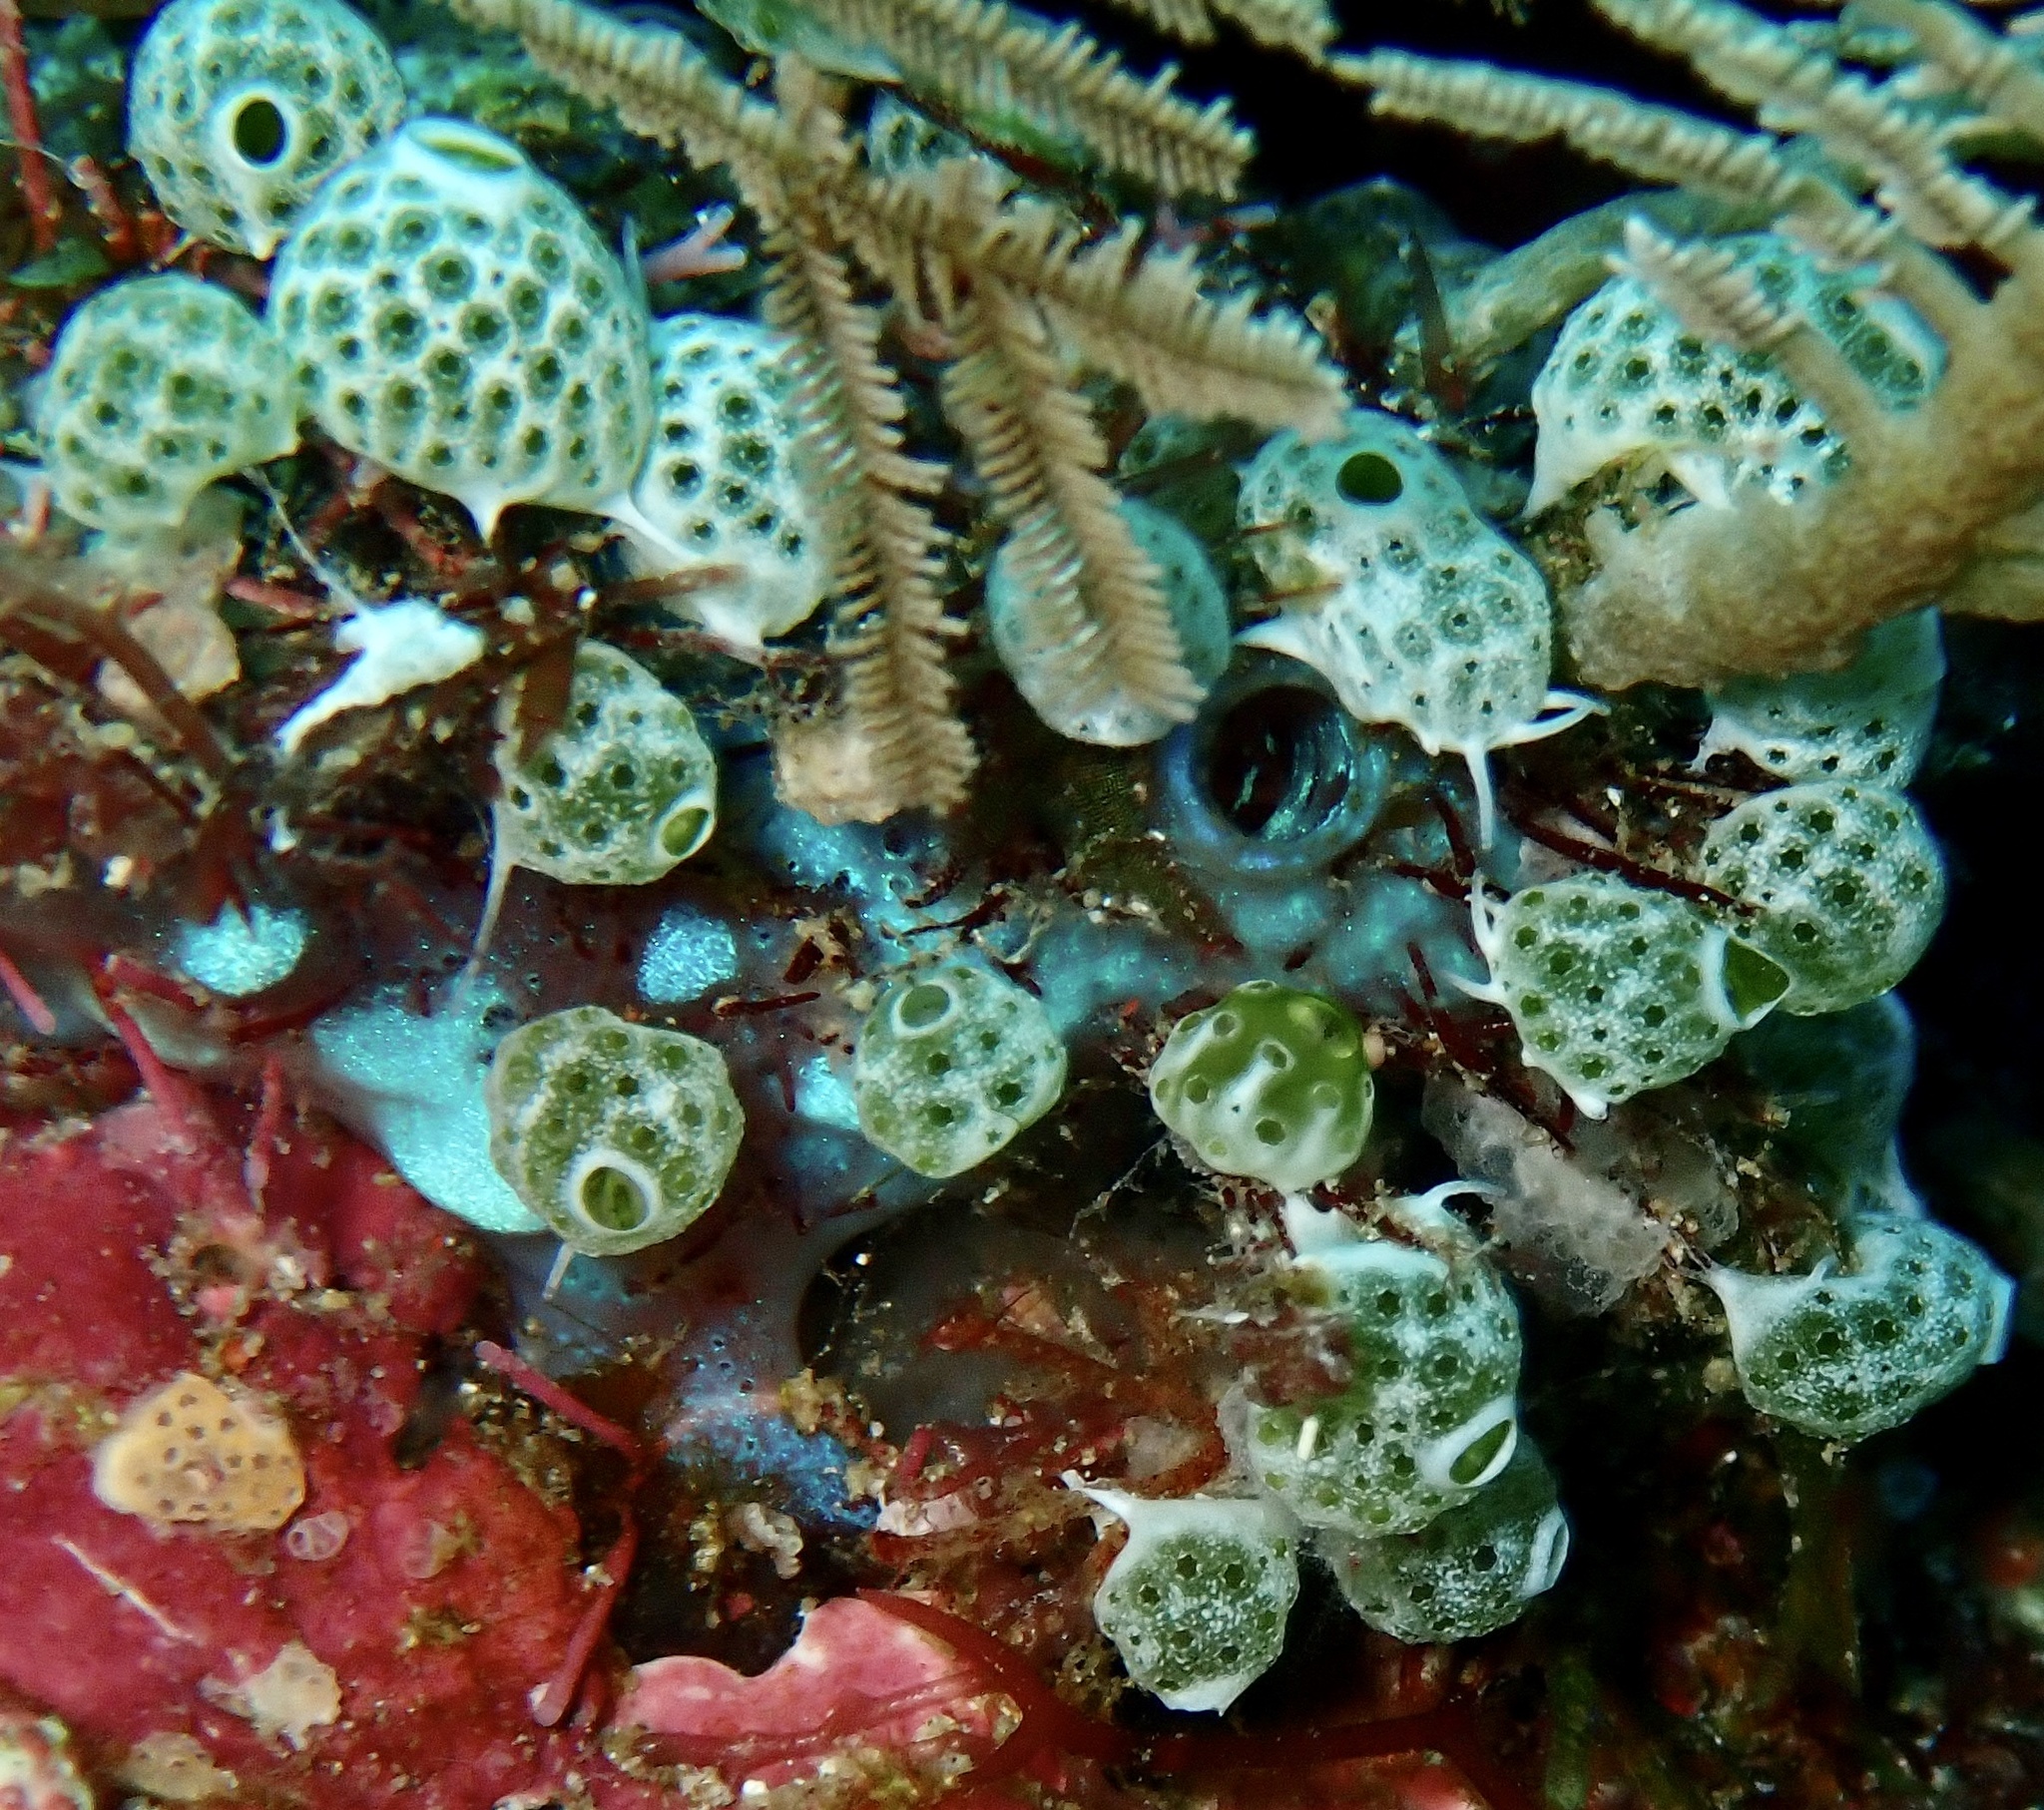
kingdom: Animalia
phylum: Chordata
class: Ascidiacea
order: Aplousobranchia
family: Didemnidae
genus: Didemnum
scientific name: Didemnum molle
